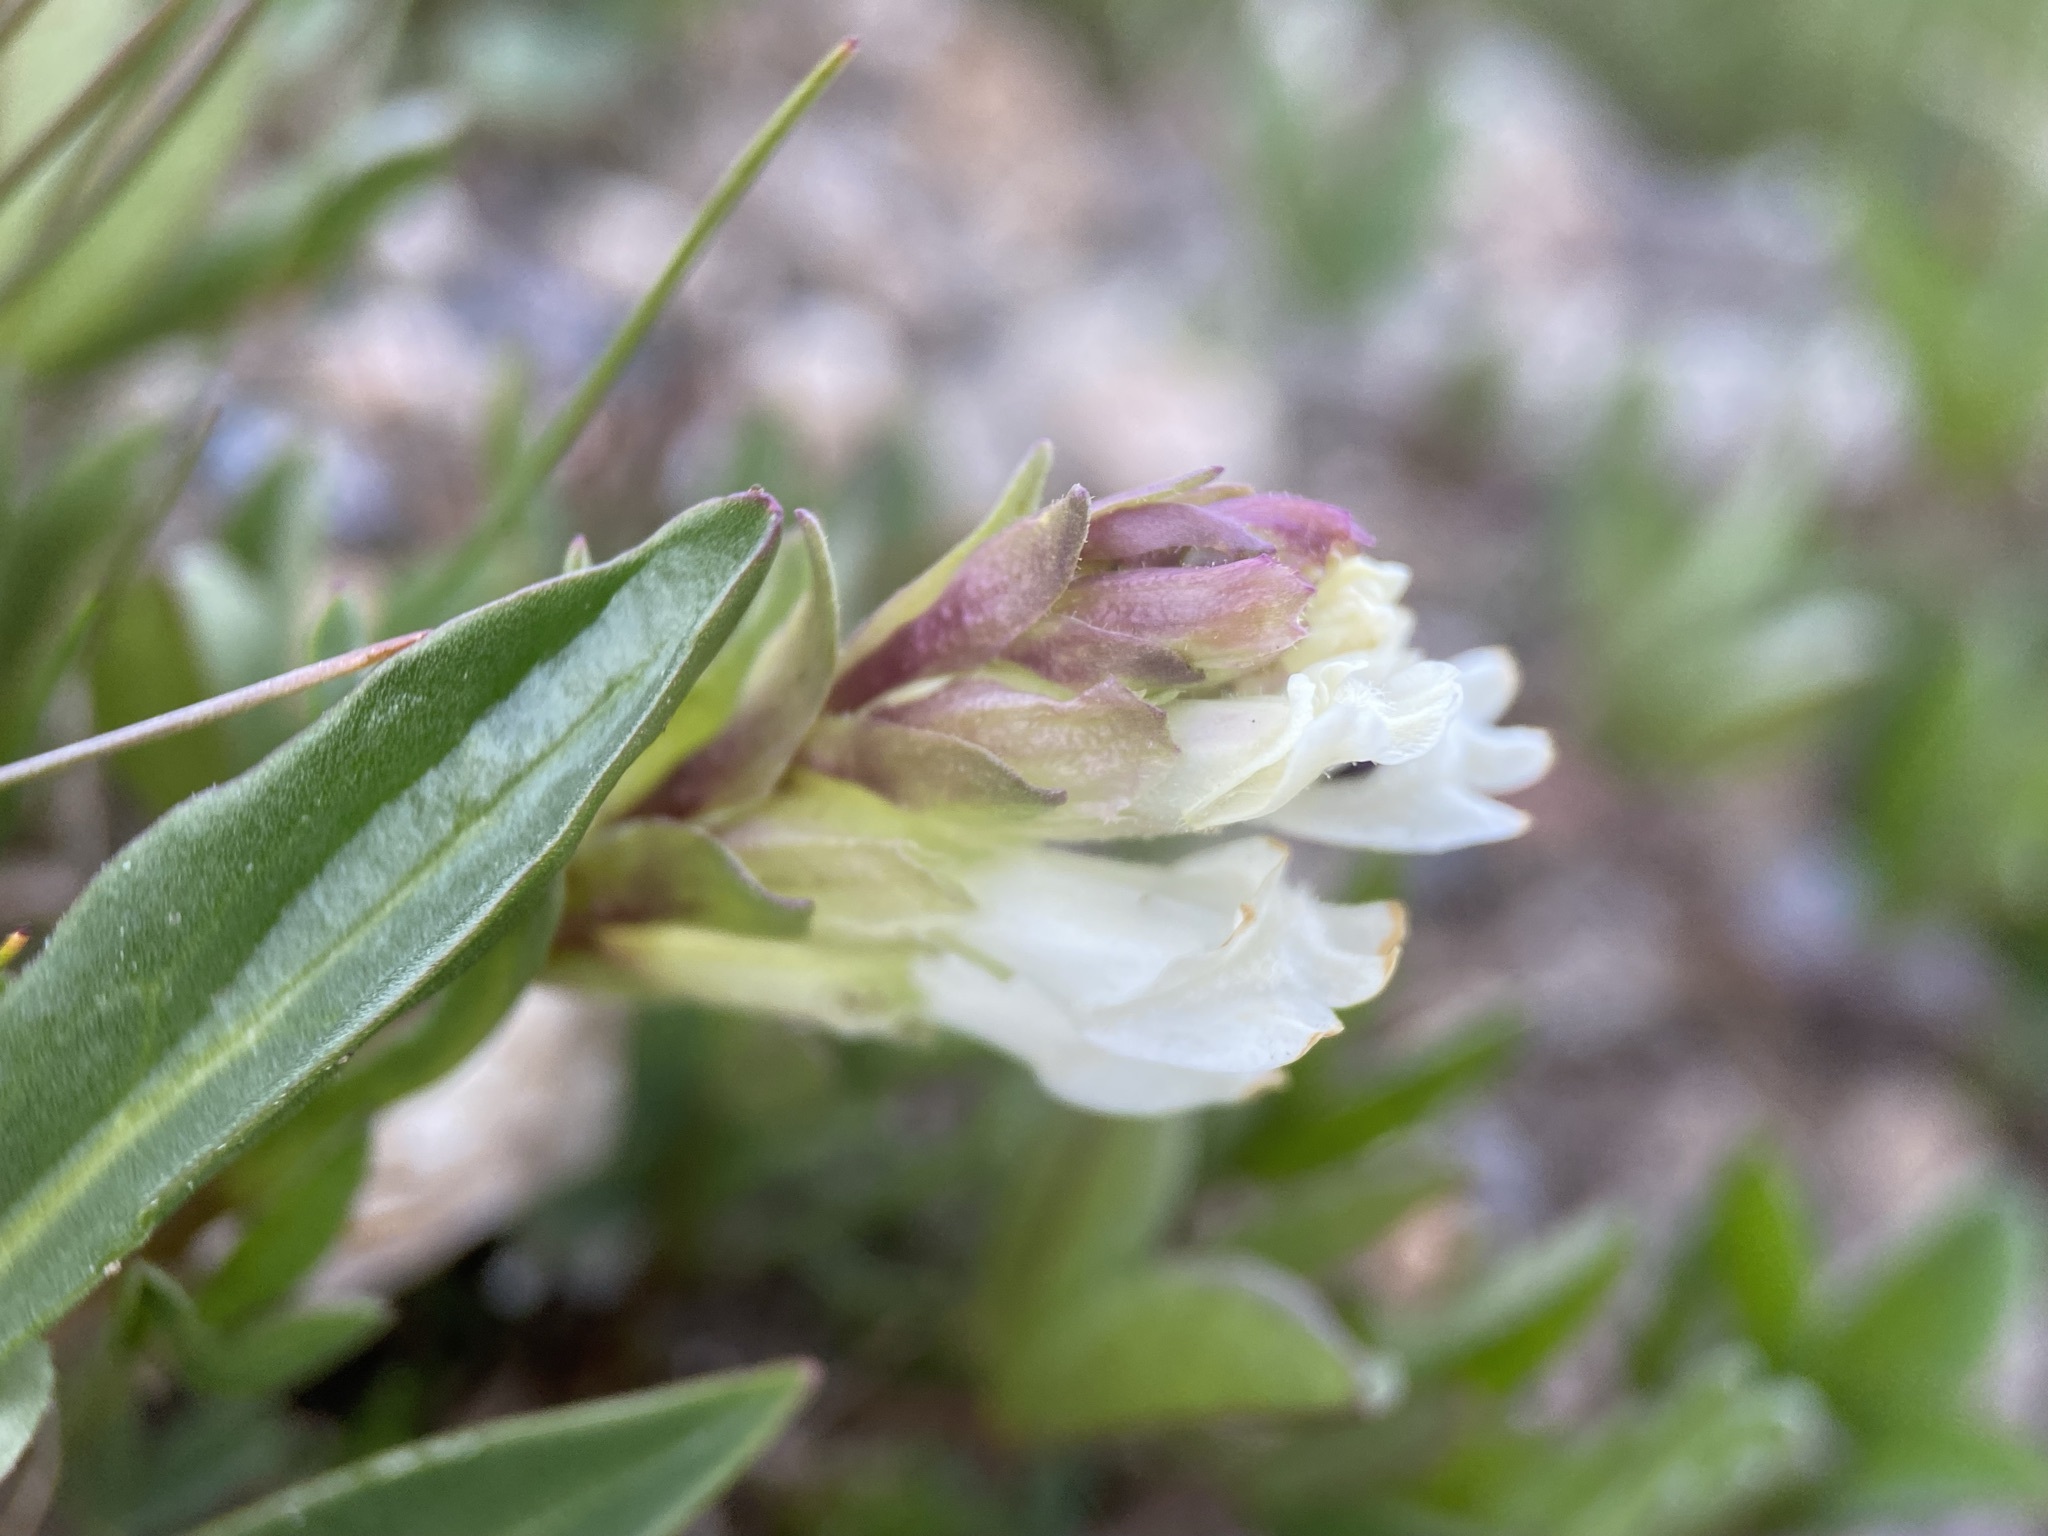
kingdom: Plantae
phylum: Tracheophyta
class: Magnoliopsida
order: Lamiales
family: Plantaginaceae
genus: Chionophila
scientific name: Chionophila jamesii
